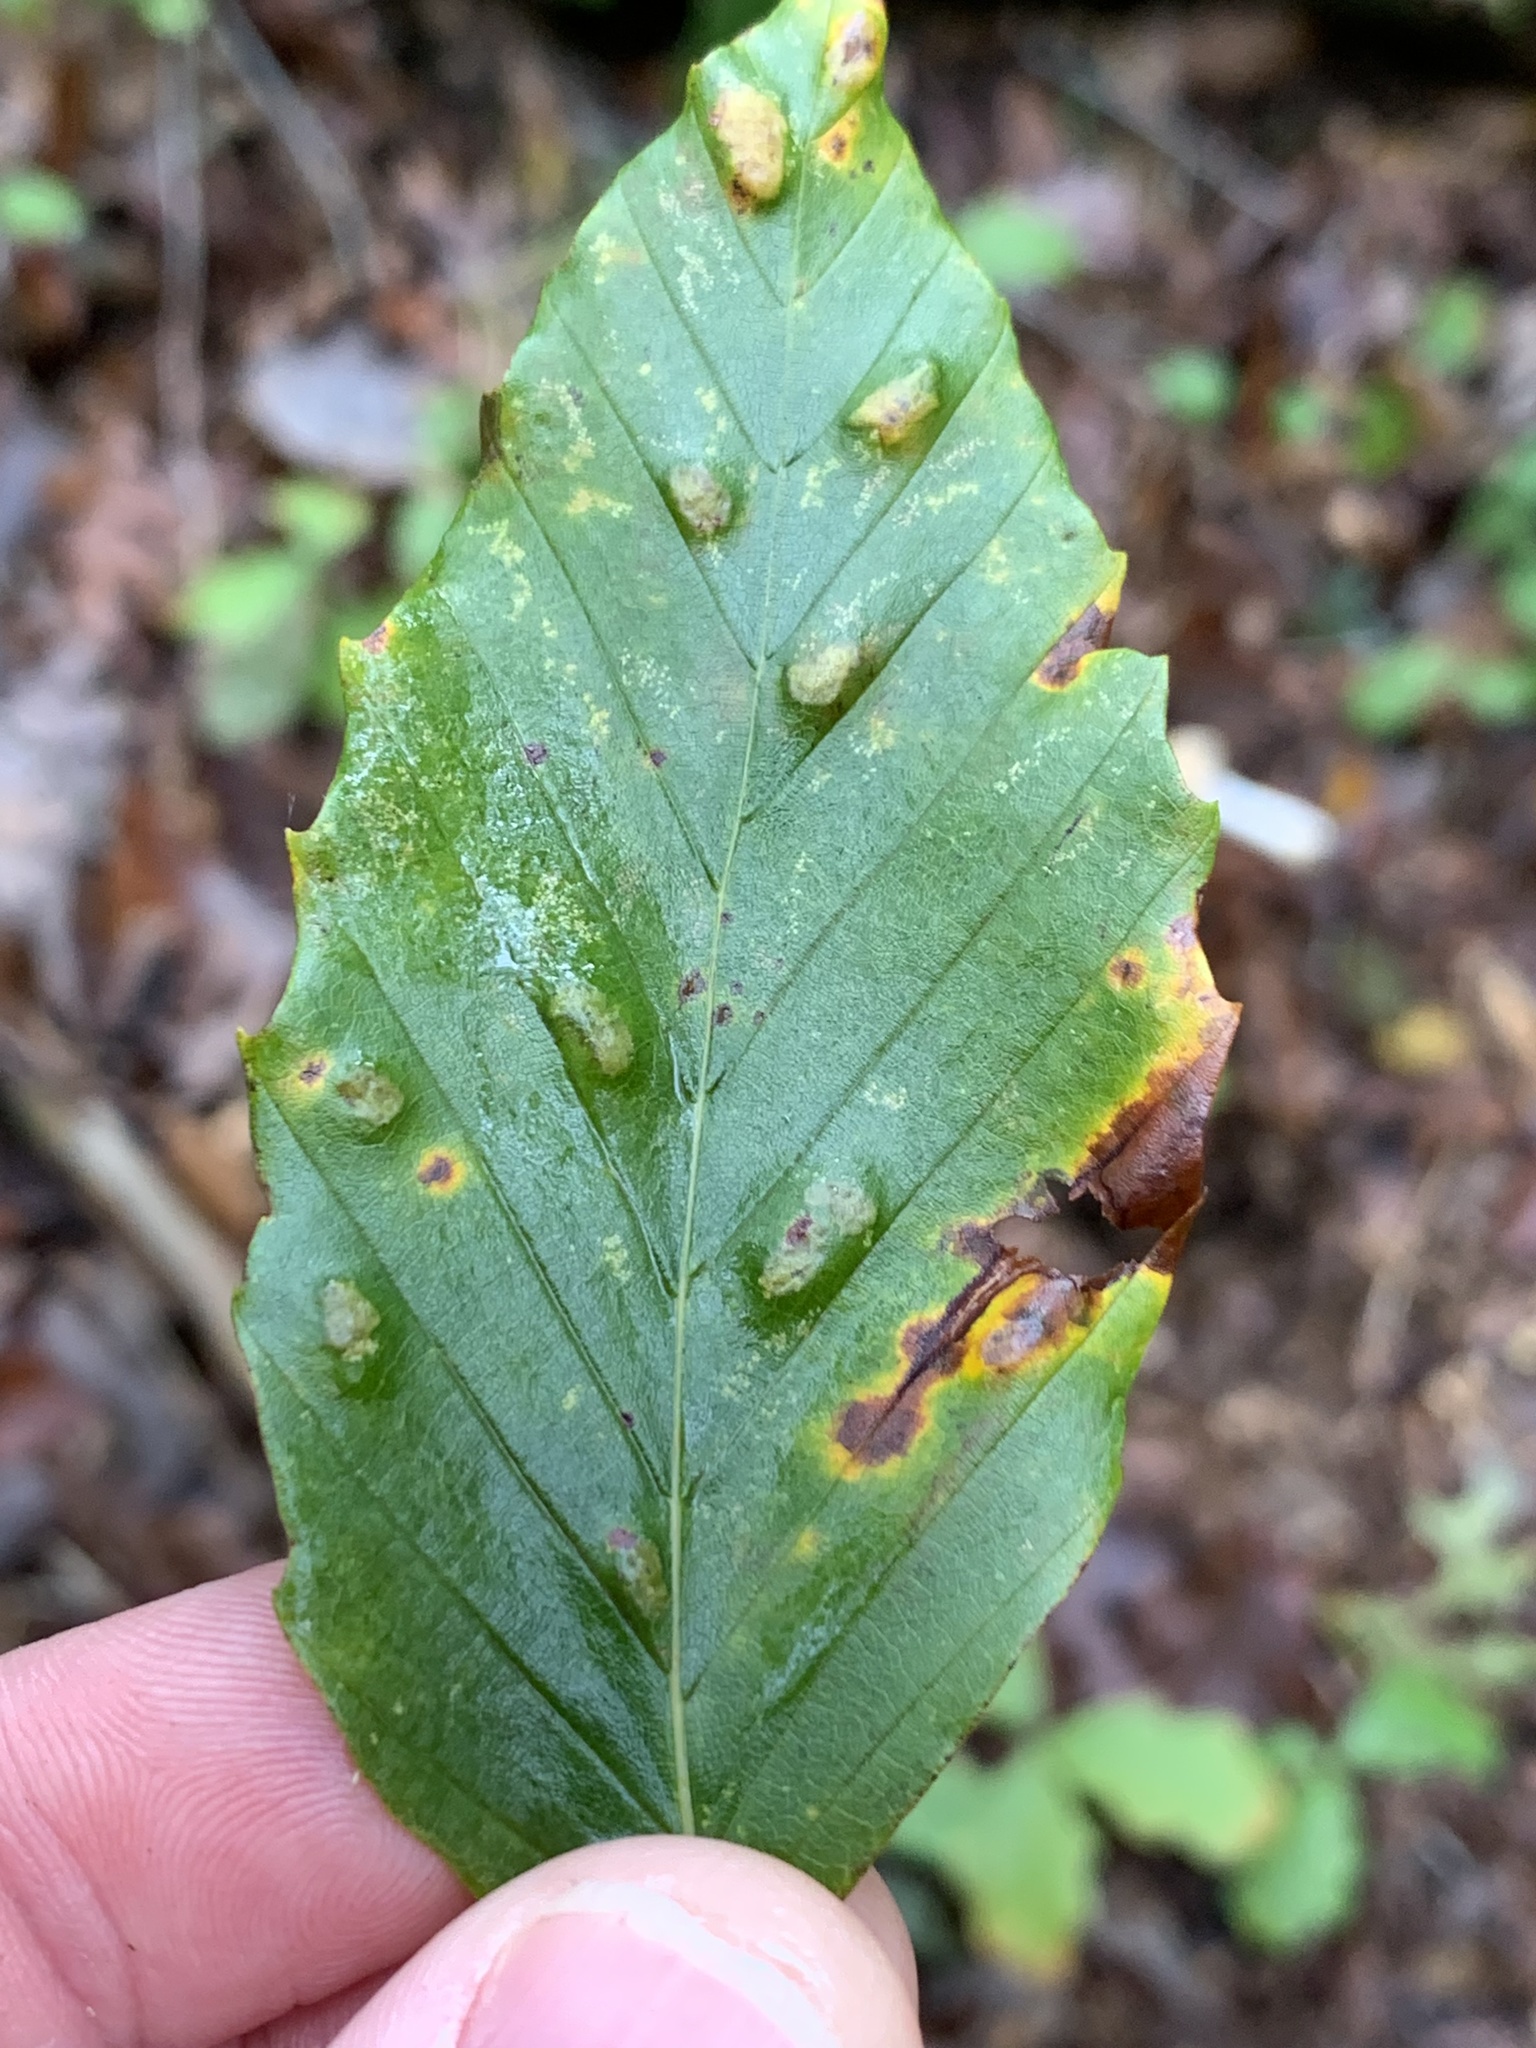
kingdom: Animalia
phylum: Arthropoda
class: Arachnida
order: Trombidiformes
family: Eriophyidae
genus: Acalitus
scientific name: Acalitus
